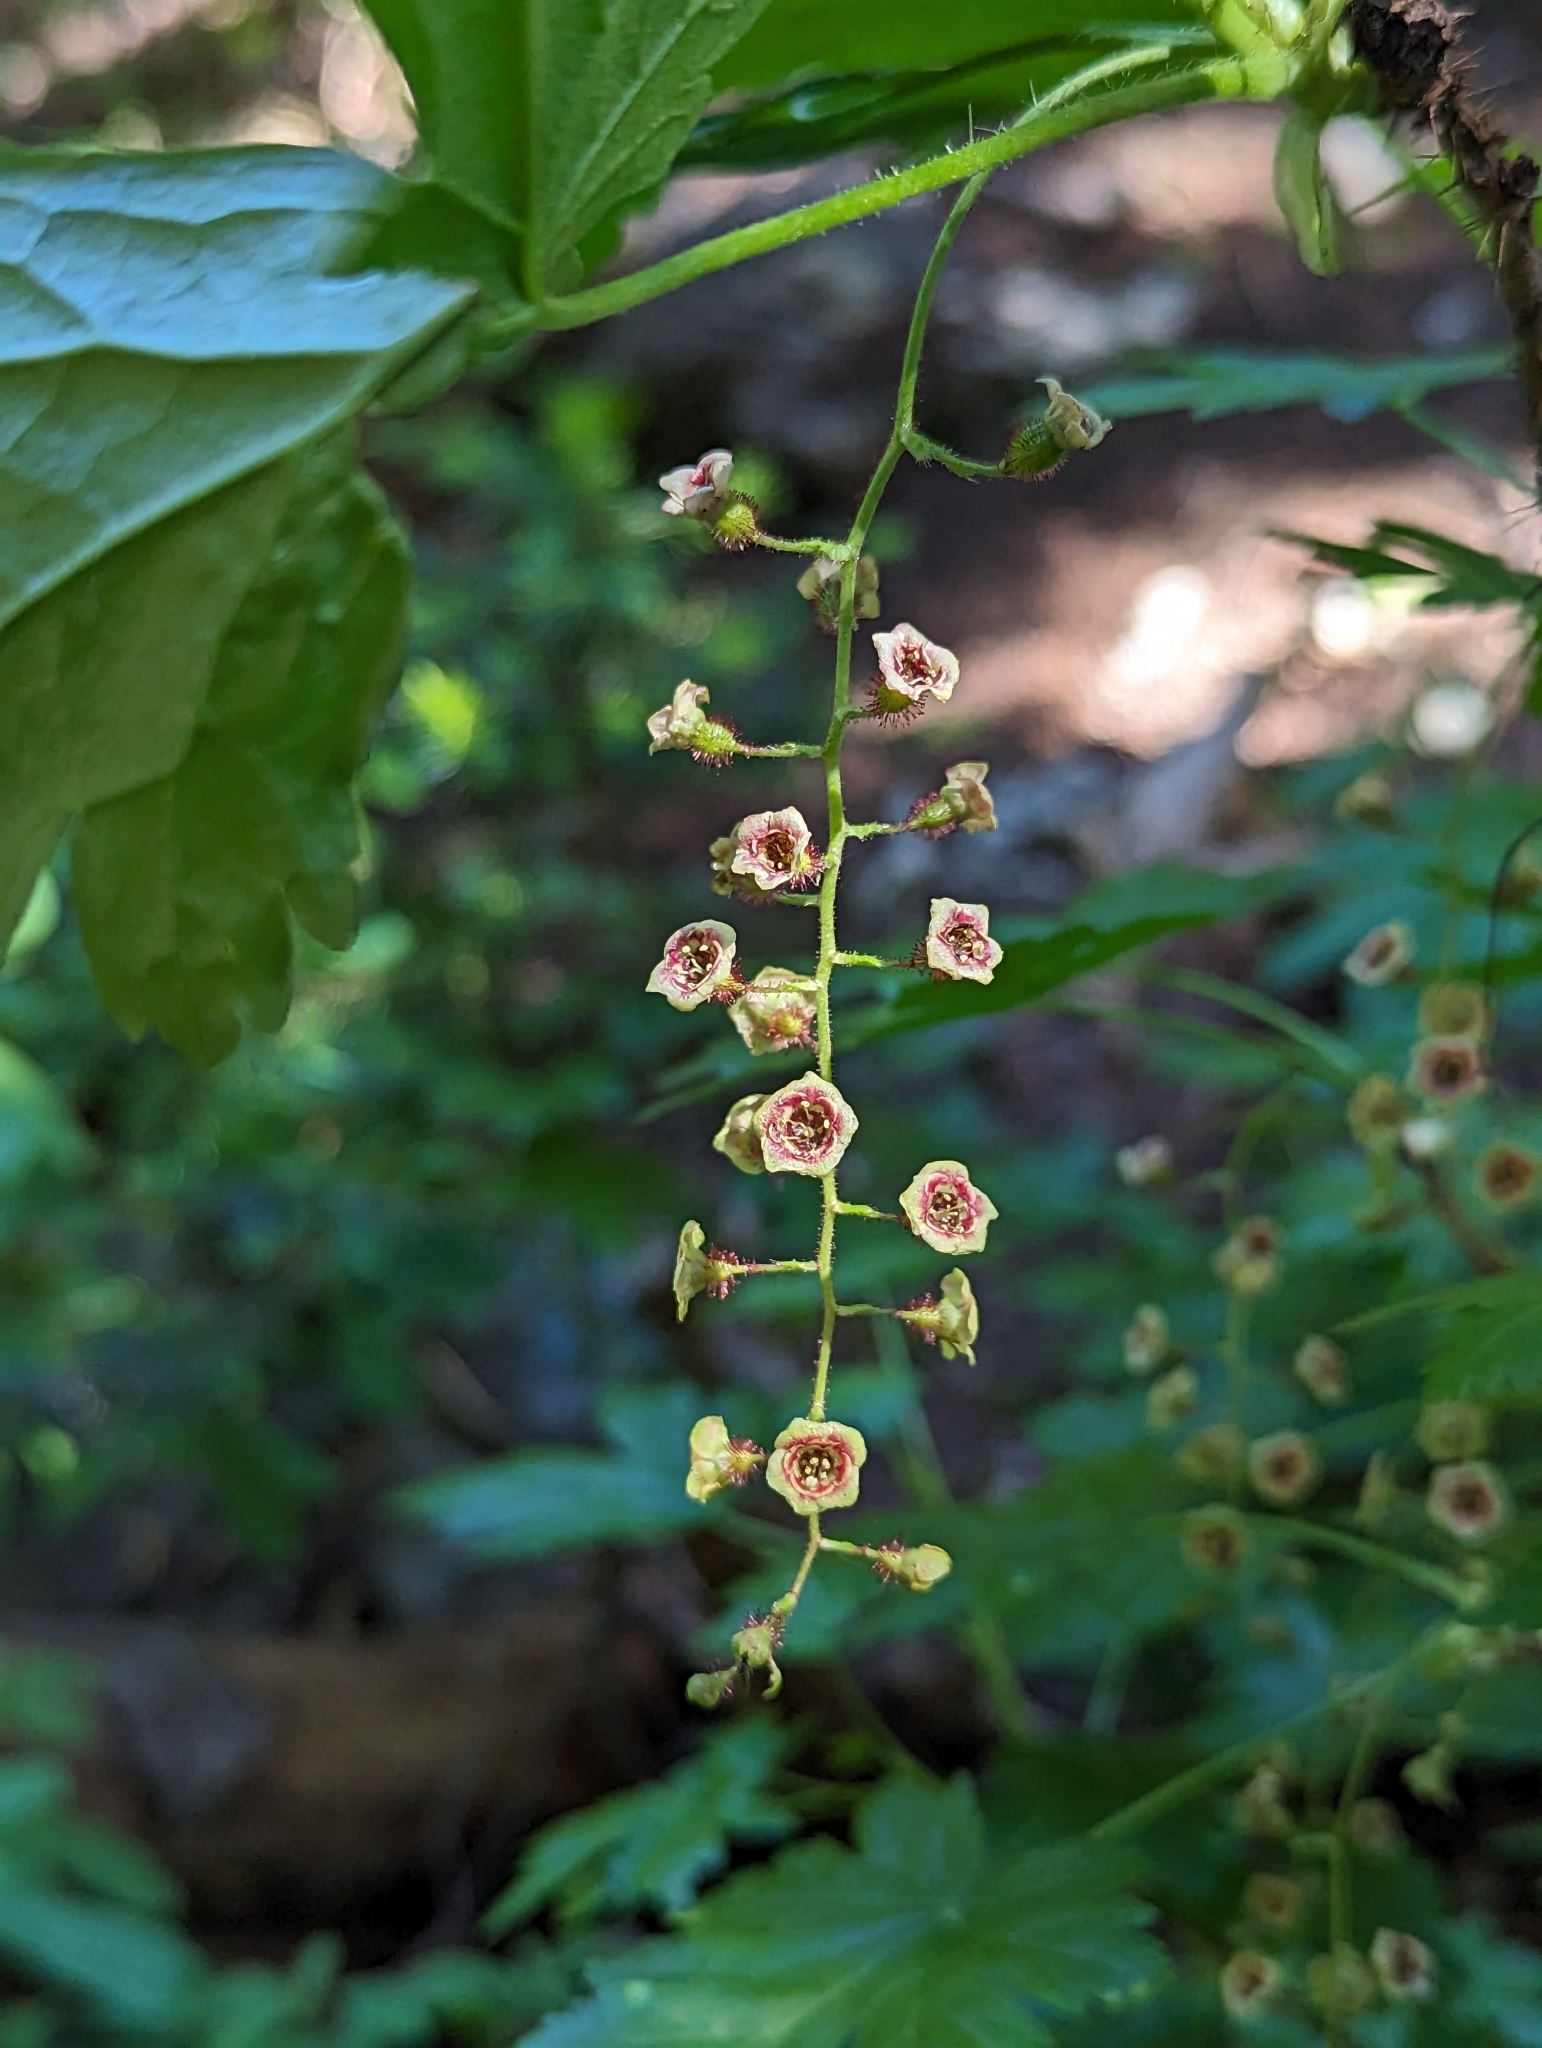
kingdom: Plantae
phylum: Tracheophyta
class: Magnoliopsida
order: Saxifragales
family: Grossulariaceae
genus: Ribes
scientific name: Ribes lacustre
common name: Black gooseberry
